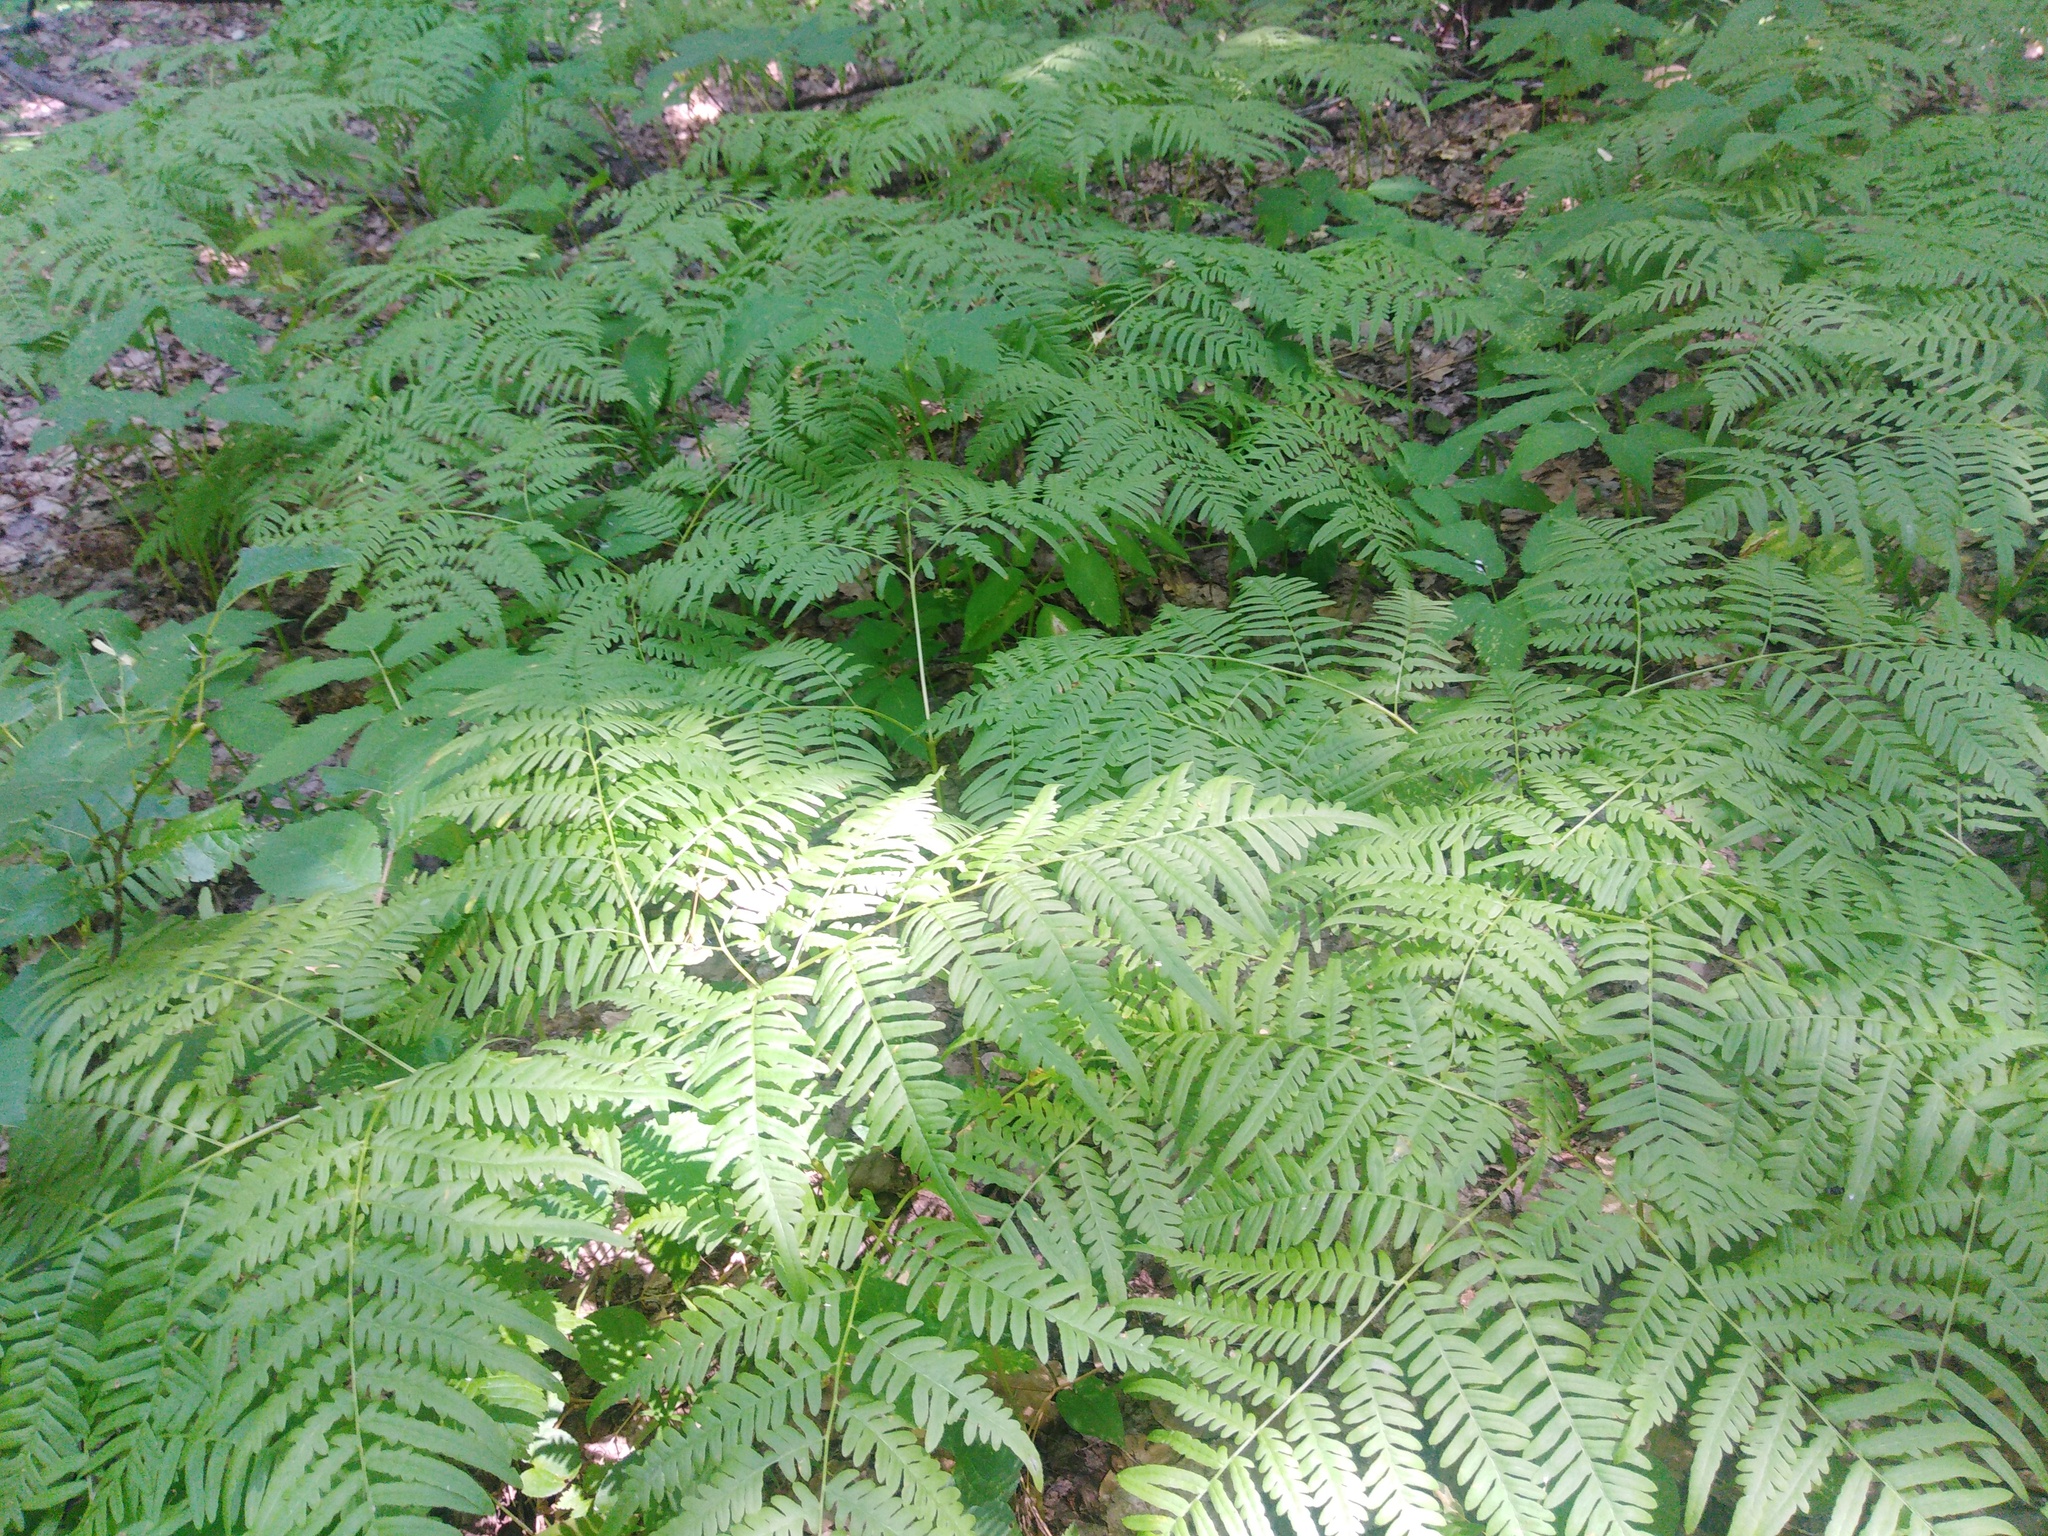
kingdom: Plantae
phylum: Tracheophyta
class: Polypodiopsida
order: Polypodiales
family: Dennstaedtiaceae
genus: Pteridium
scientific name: Pteridium aquilinum
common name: Bracken
